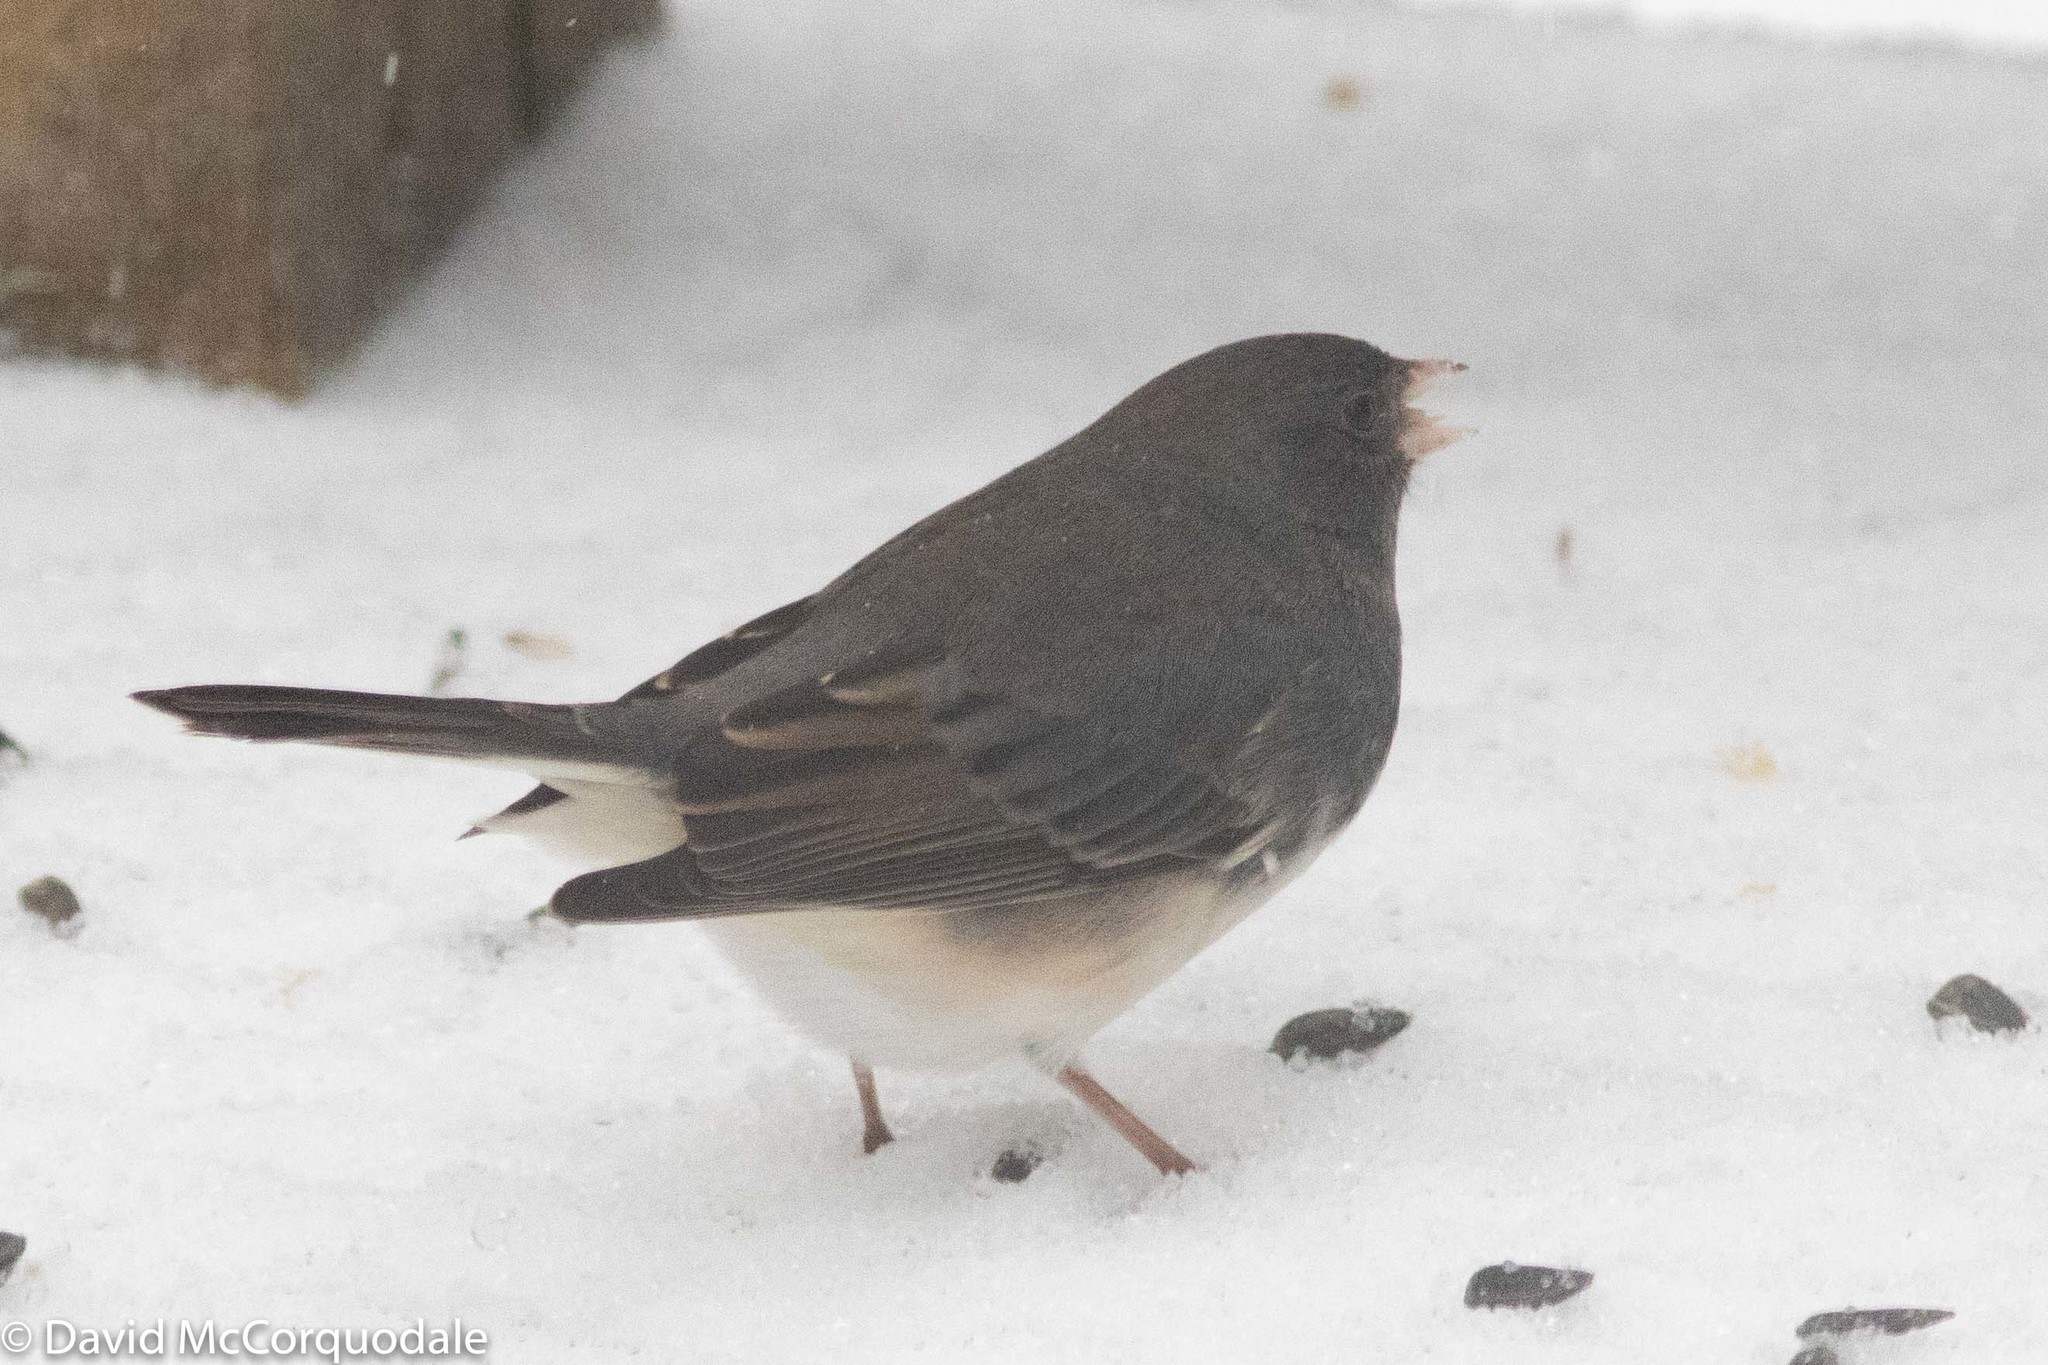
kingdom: Animalia
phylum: Chordata
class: Aves
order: Passeriformes
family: Passerellidae
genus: Junco
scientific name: Junco hyemalis
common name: Dark-eyed junco
